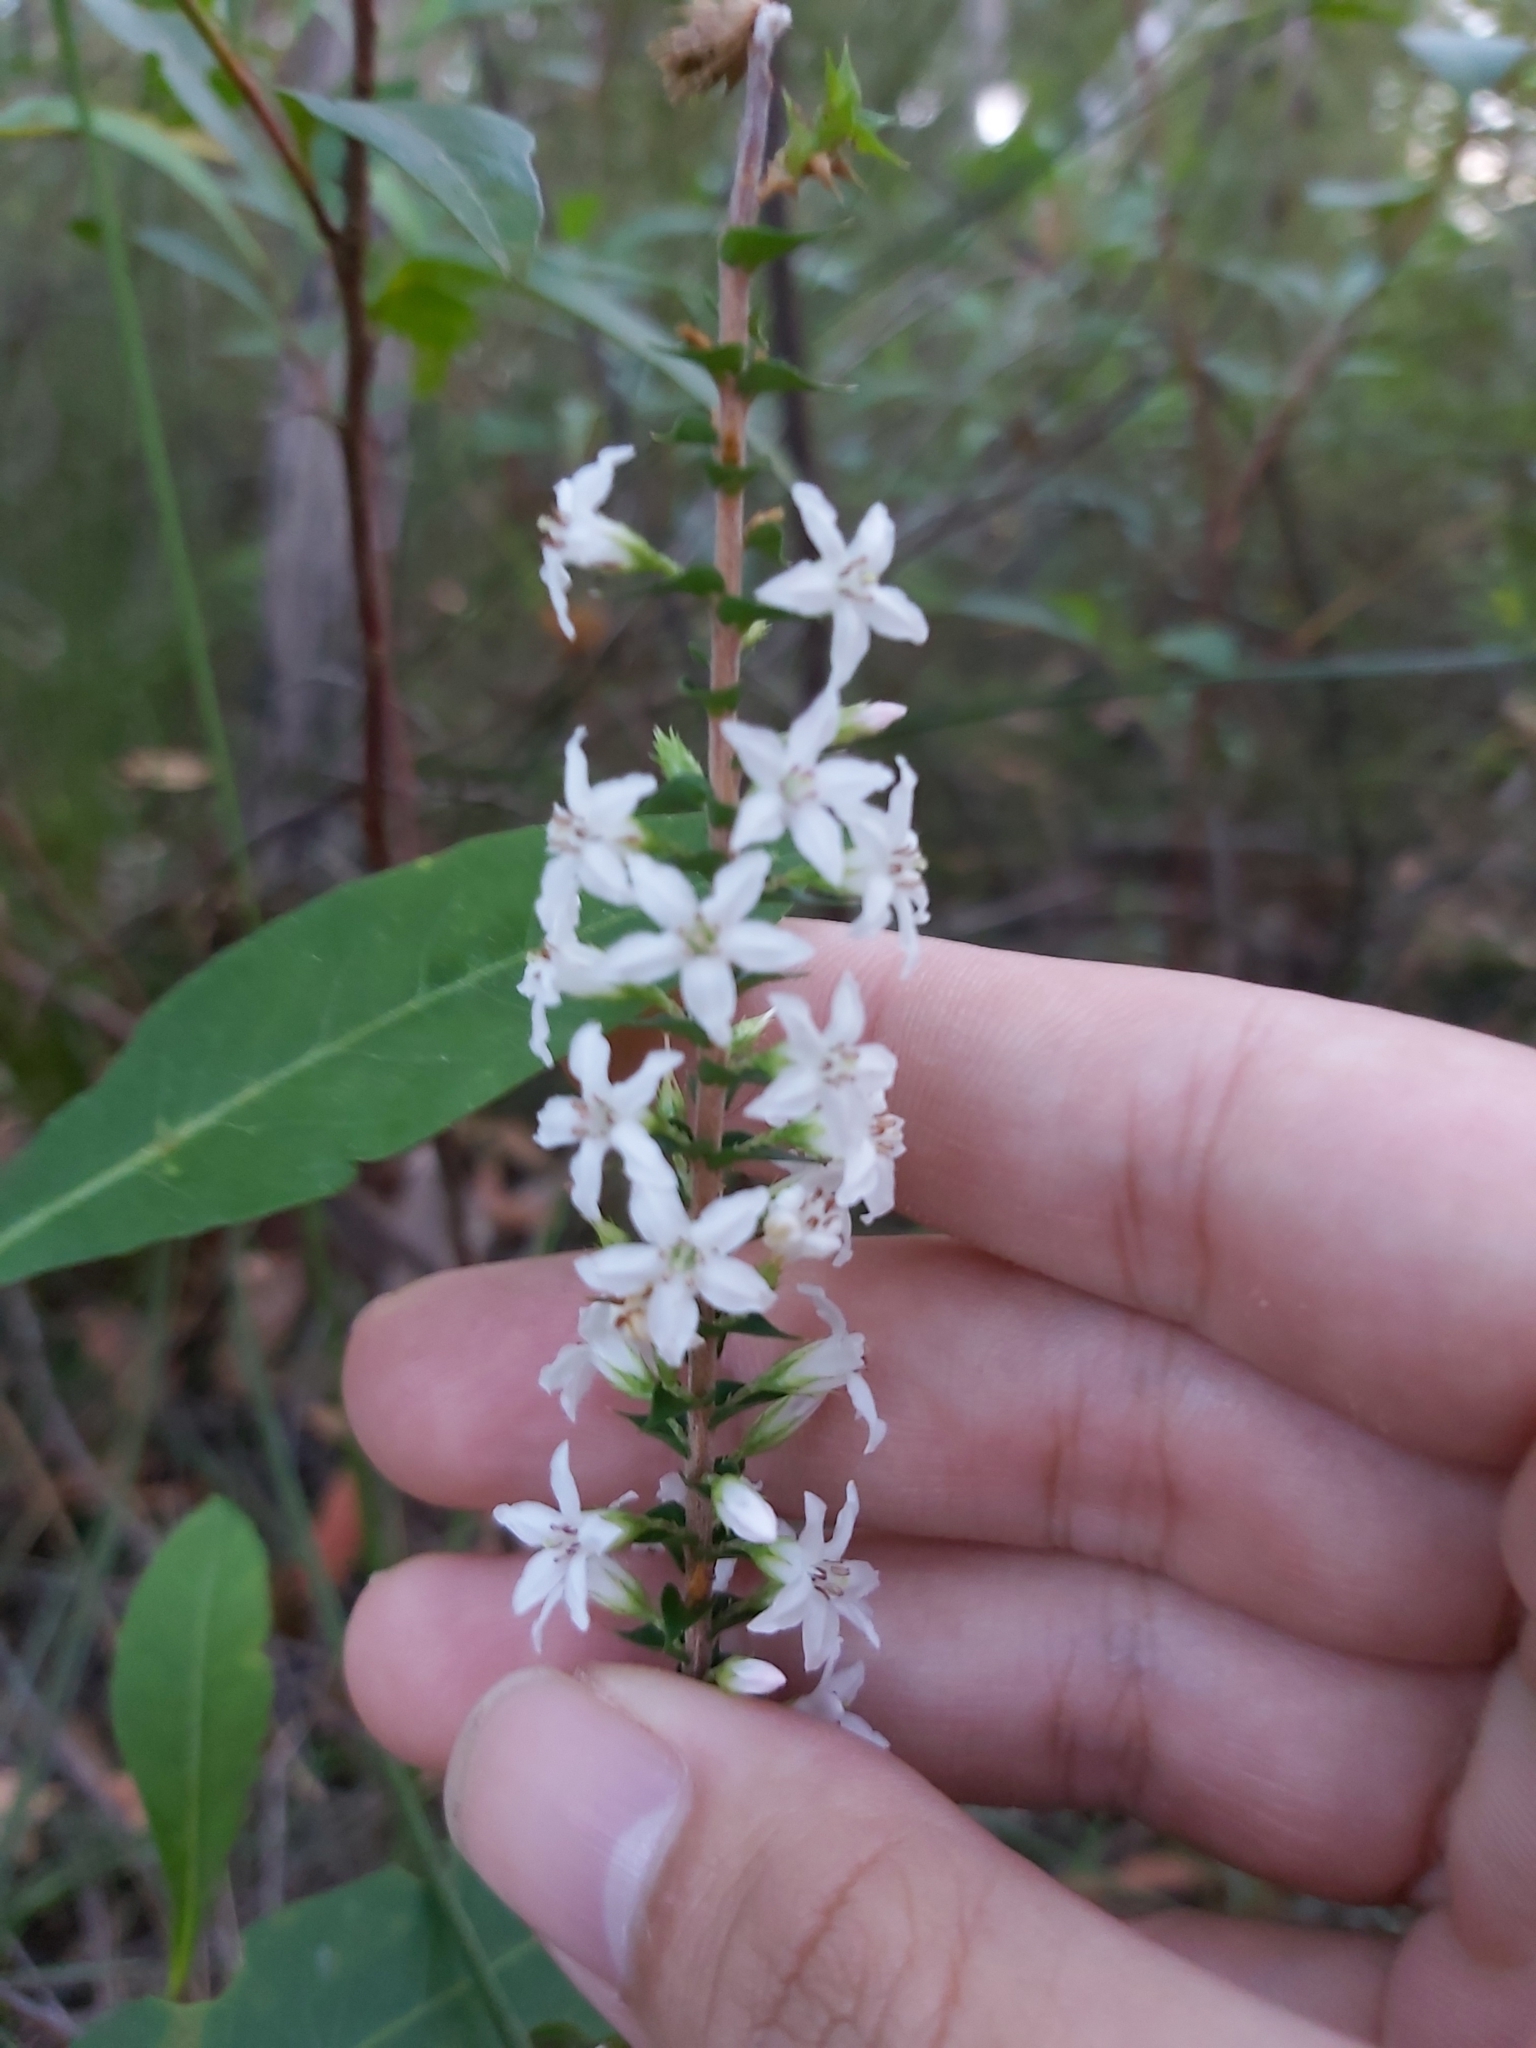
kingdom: Plantae
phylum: Tracheophyta
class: Magnoliopsida
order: Ericales
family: Ericaceae
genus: Epacris
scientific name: Epacris pulchella
